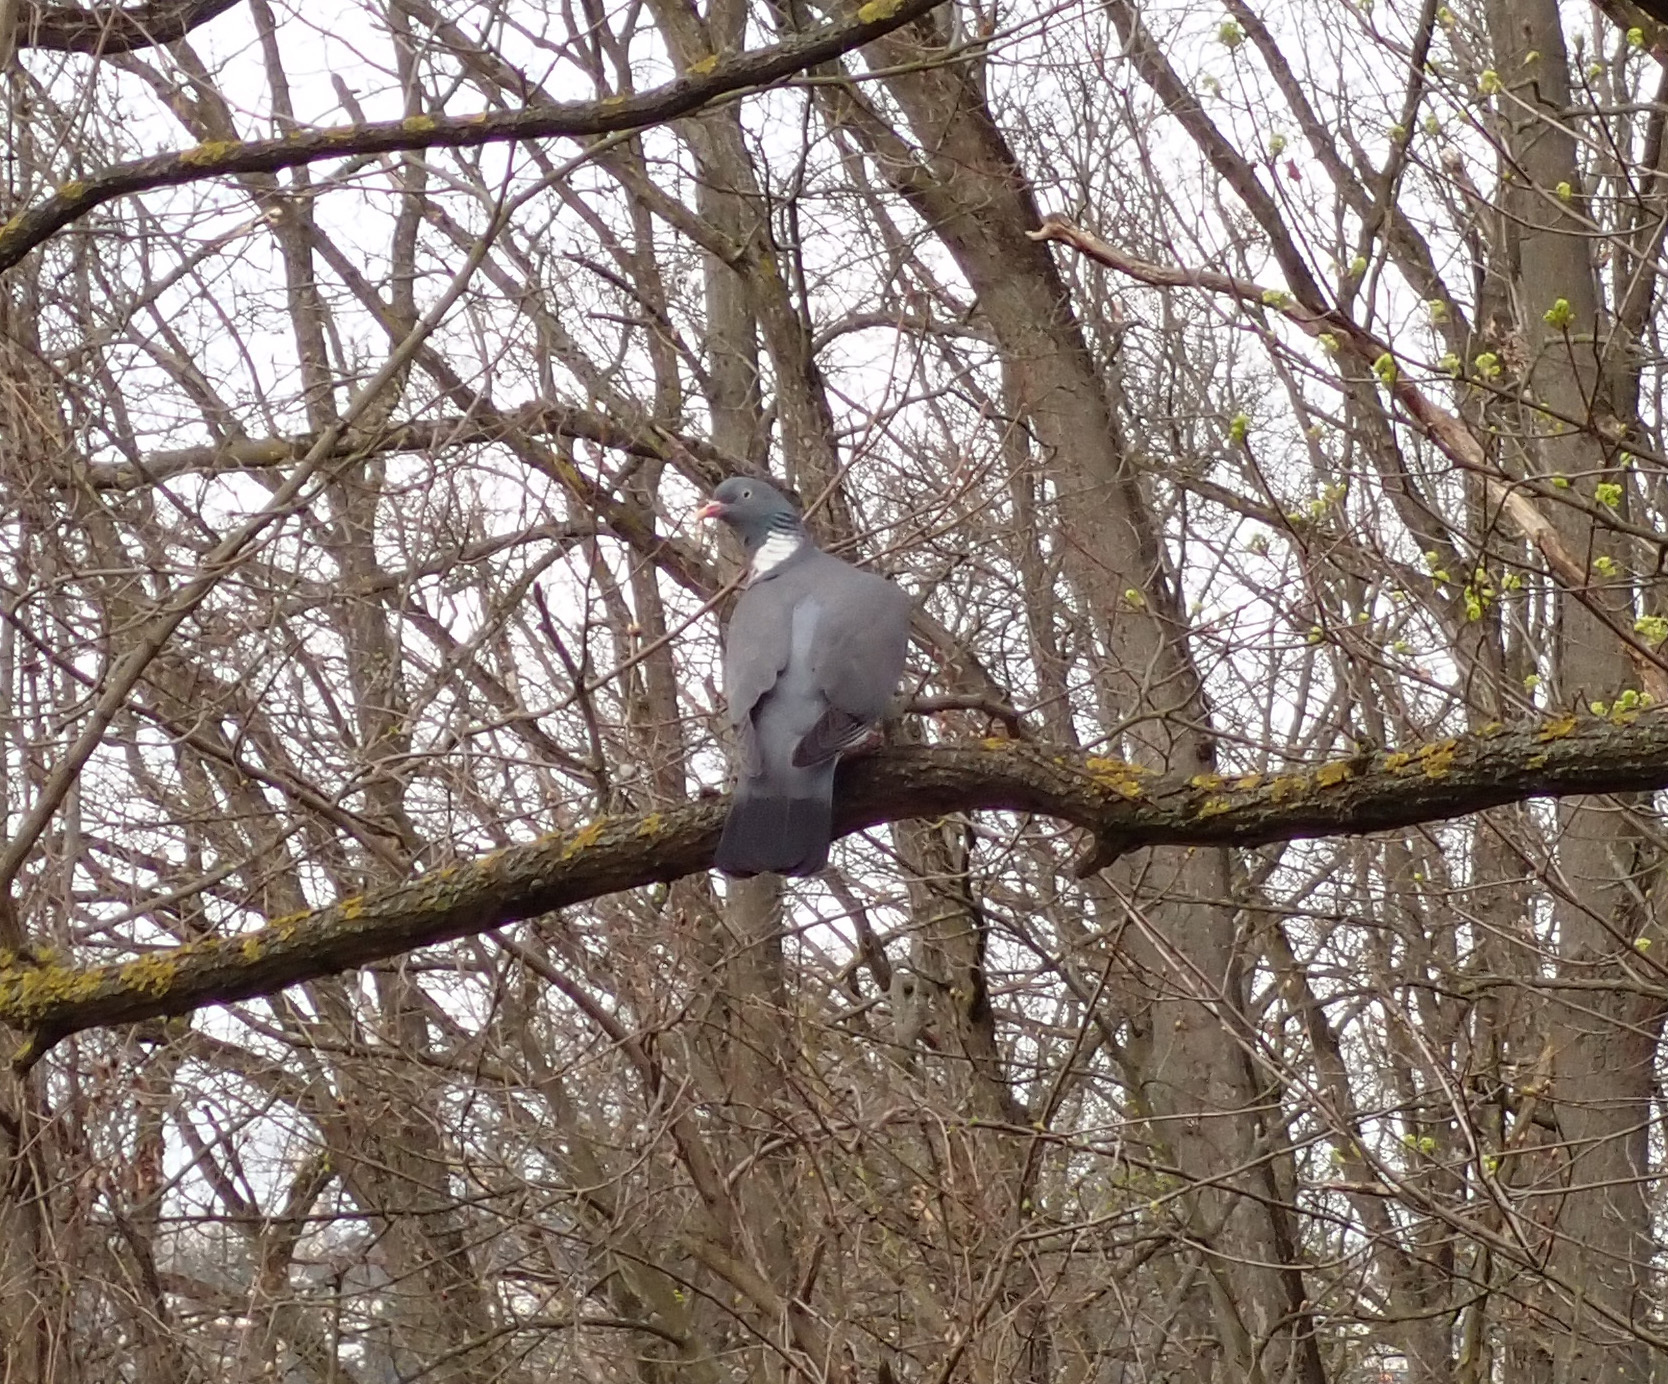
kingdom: Animalia
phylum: Chordata
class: Aves
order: Columbiformes
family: Columbidae
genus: Columba
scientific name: Columba palumbus
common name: Common wood pigeon
